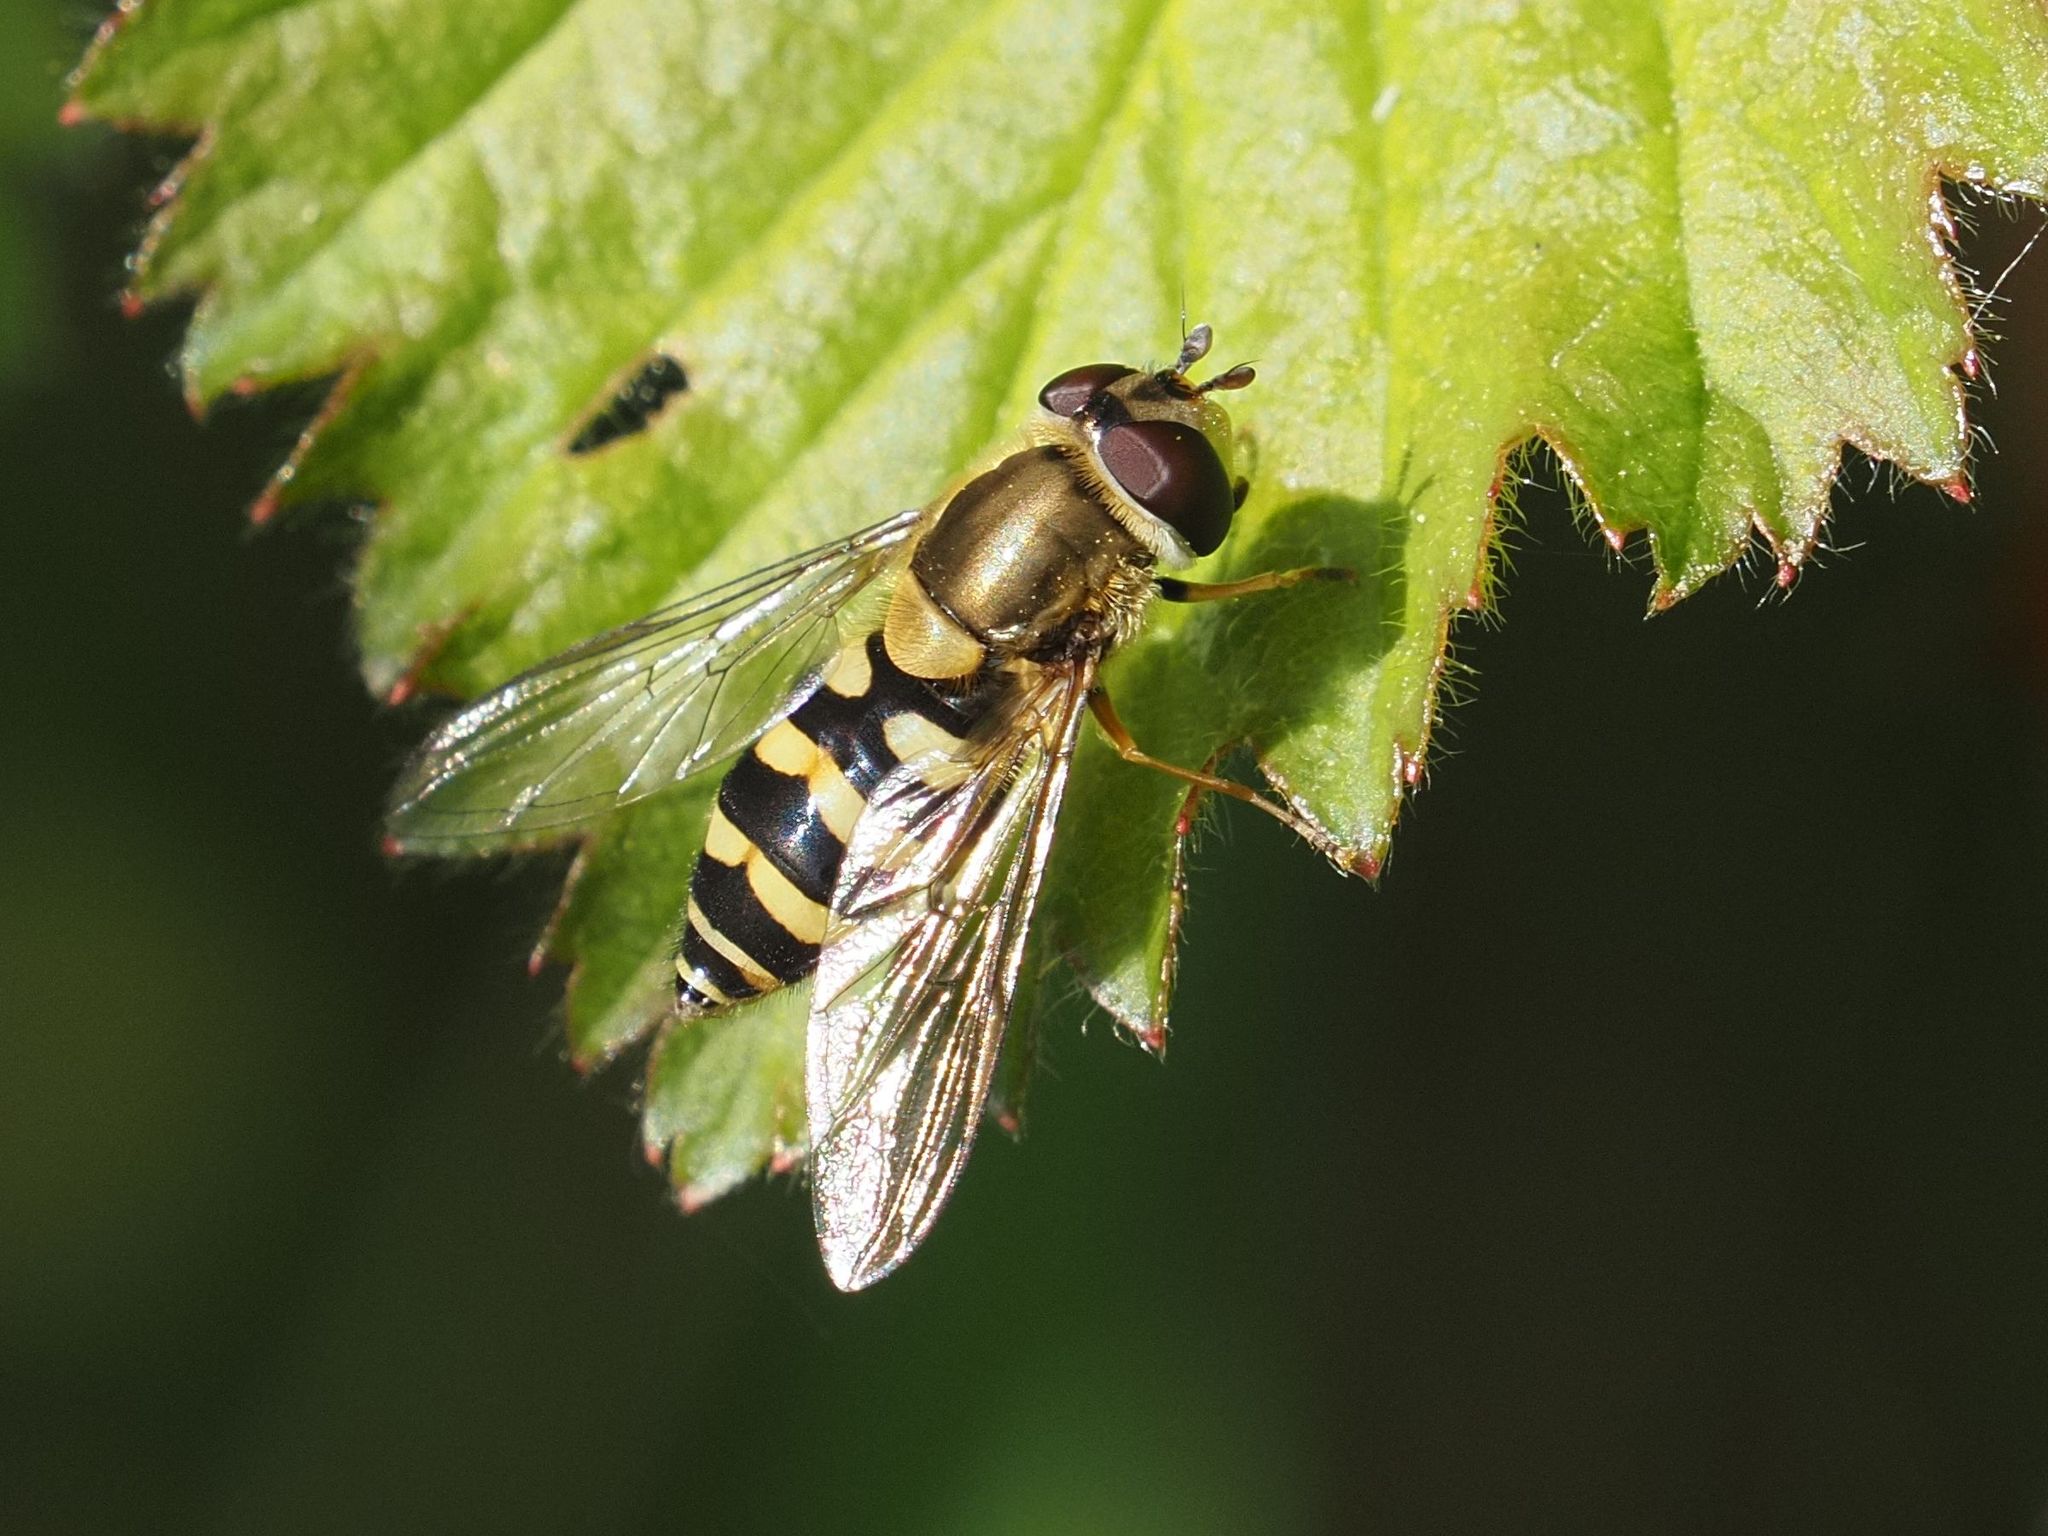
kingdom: Animalia
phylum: Arthropoda
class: Insecta
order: Diptera
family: Syrphidae
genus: Syrphus
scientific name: Syrphus
